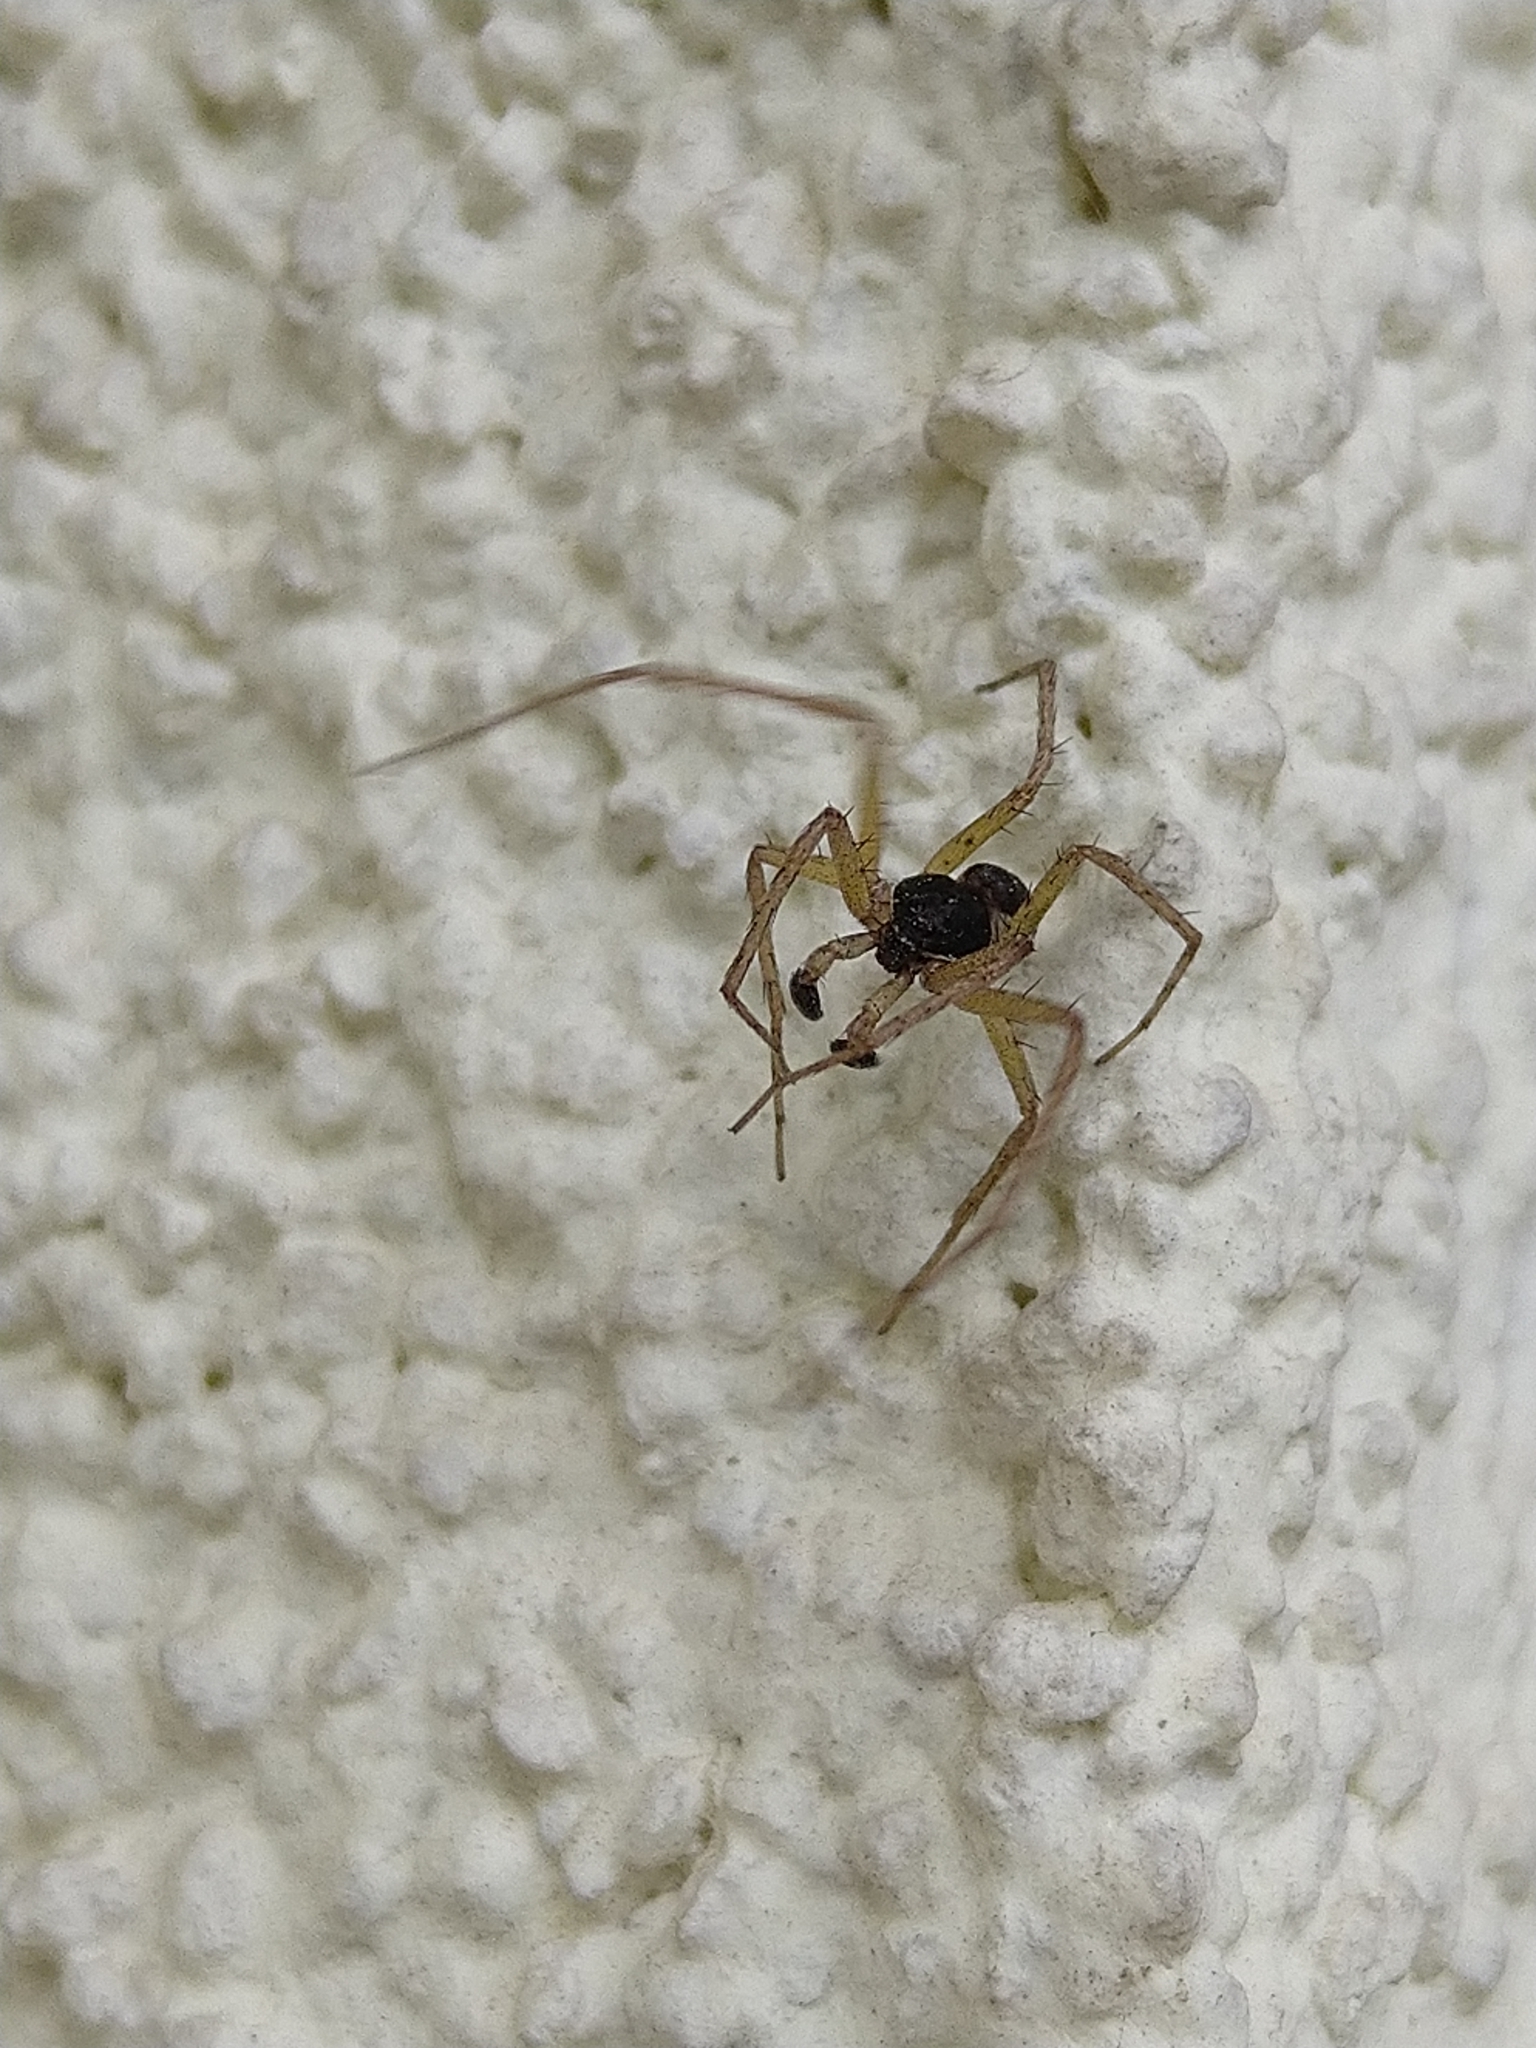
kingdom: Animalia
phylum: Arthropoda
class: Arachnida
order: Araneae
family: Philodromidae
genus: Philodromus
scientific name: Philodromus dispar
